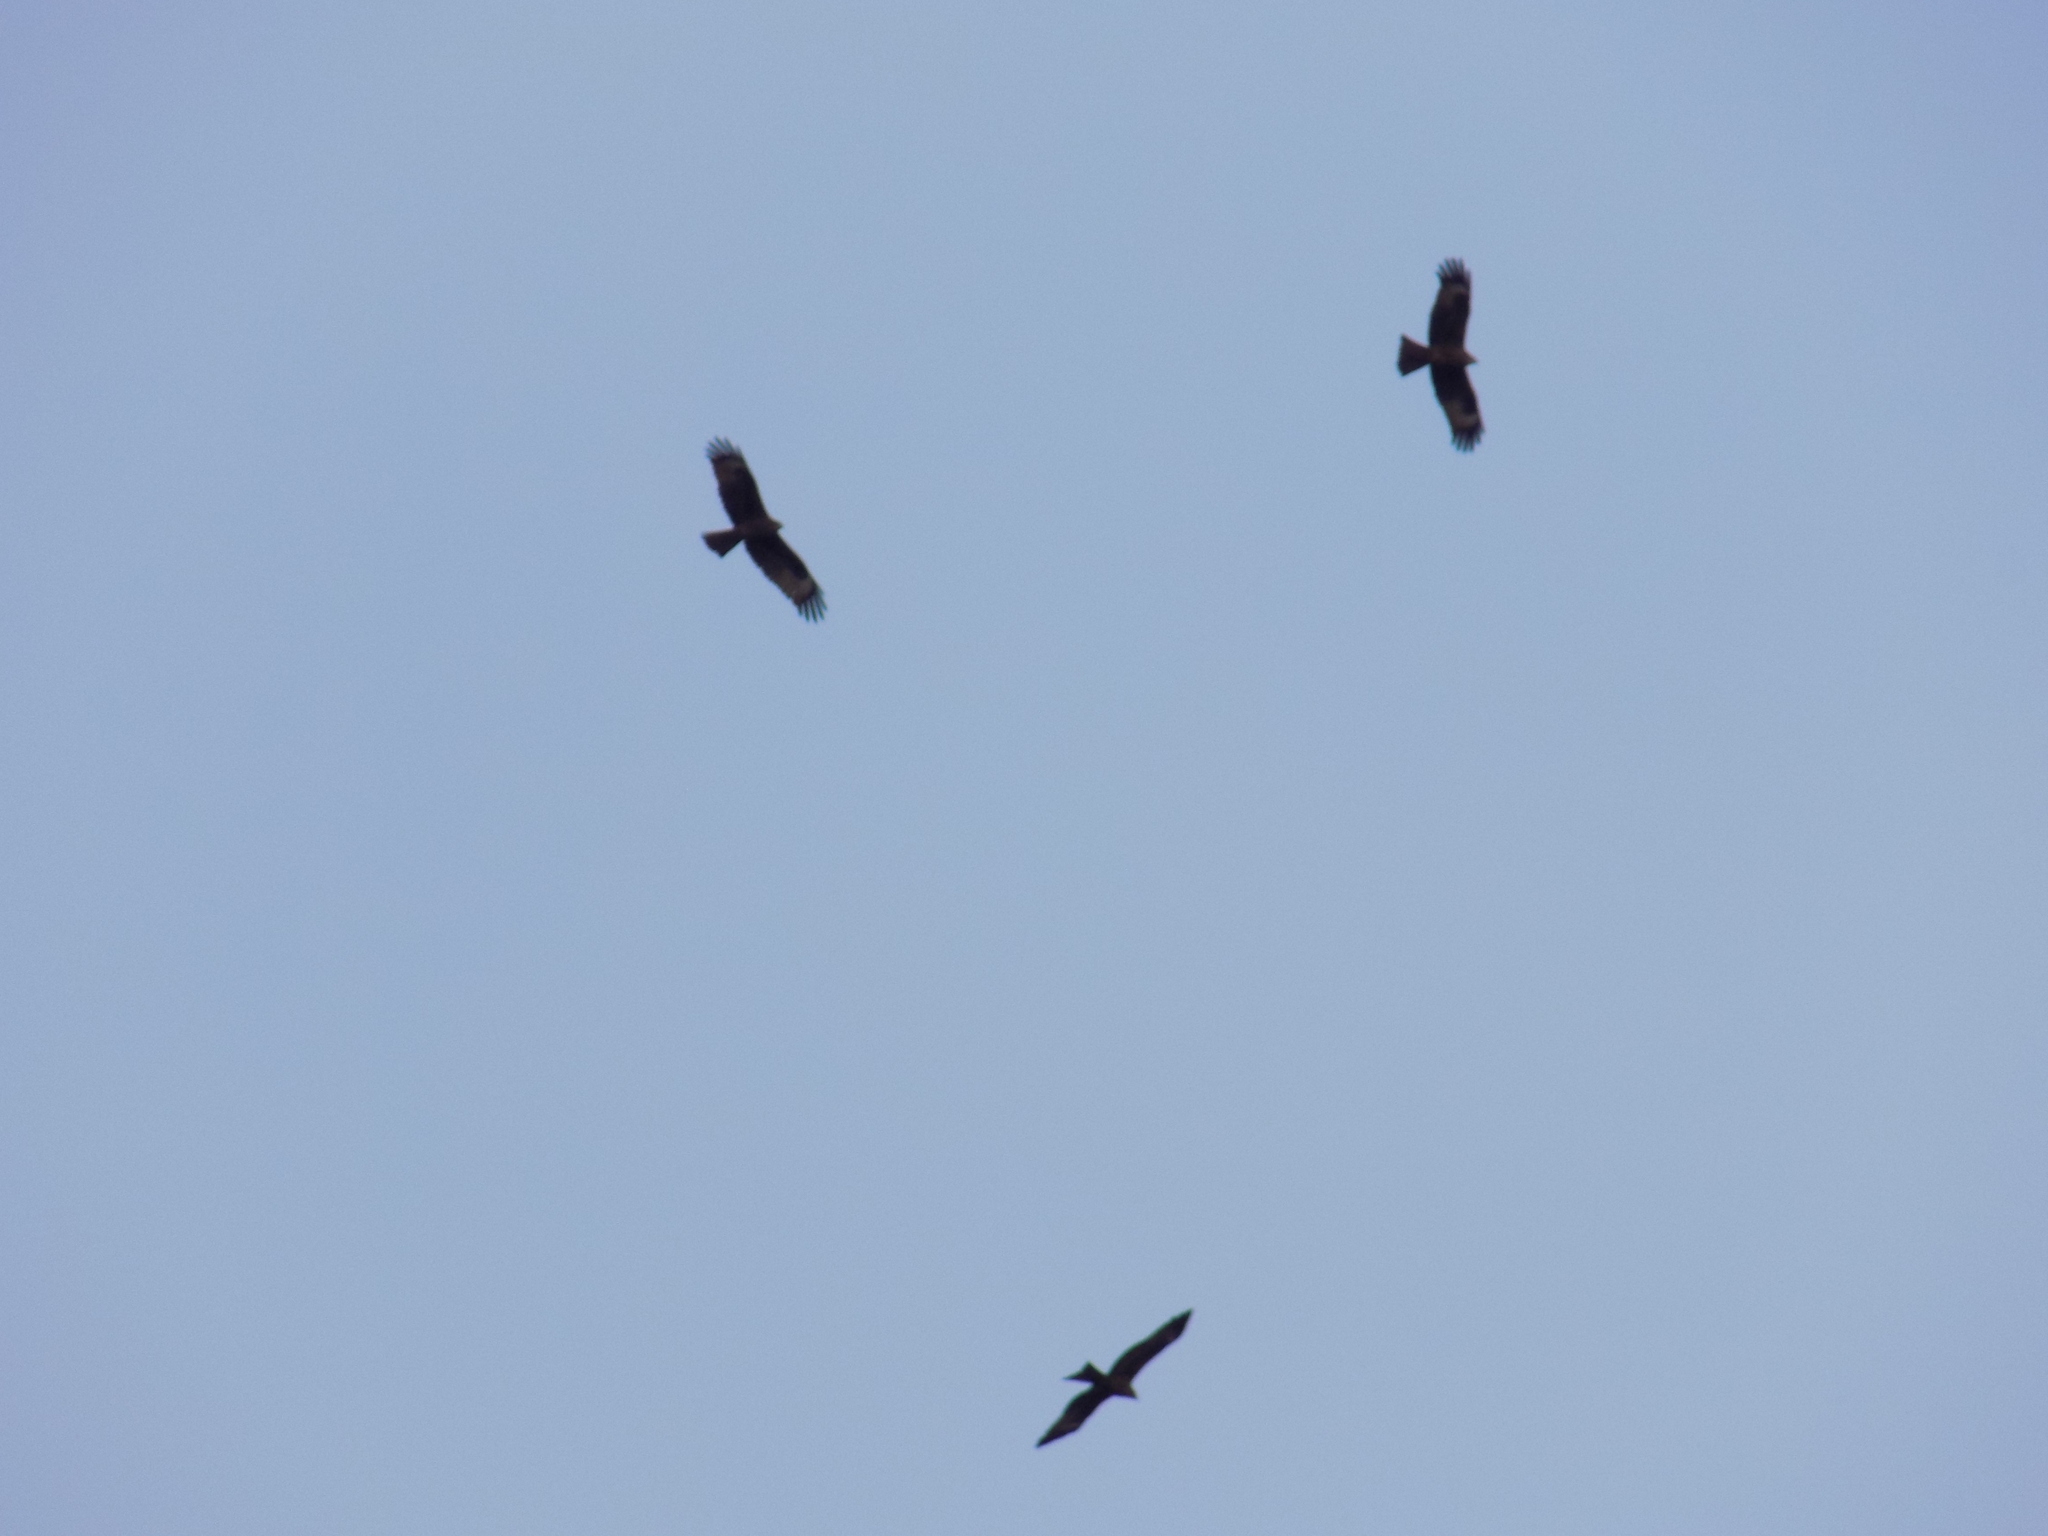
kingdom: Animalia
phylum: Chordata
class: Aves
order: Accipitriformes
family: Accipitridae
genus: Milvus
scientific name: Milvus migrans
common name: Black kite
